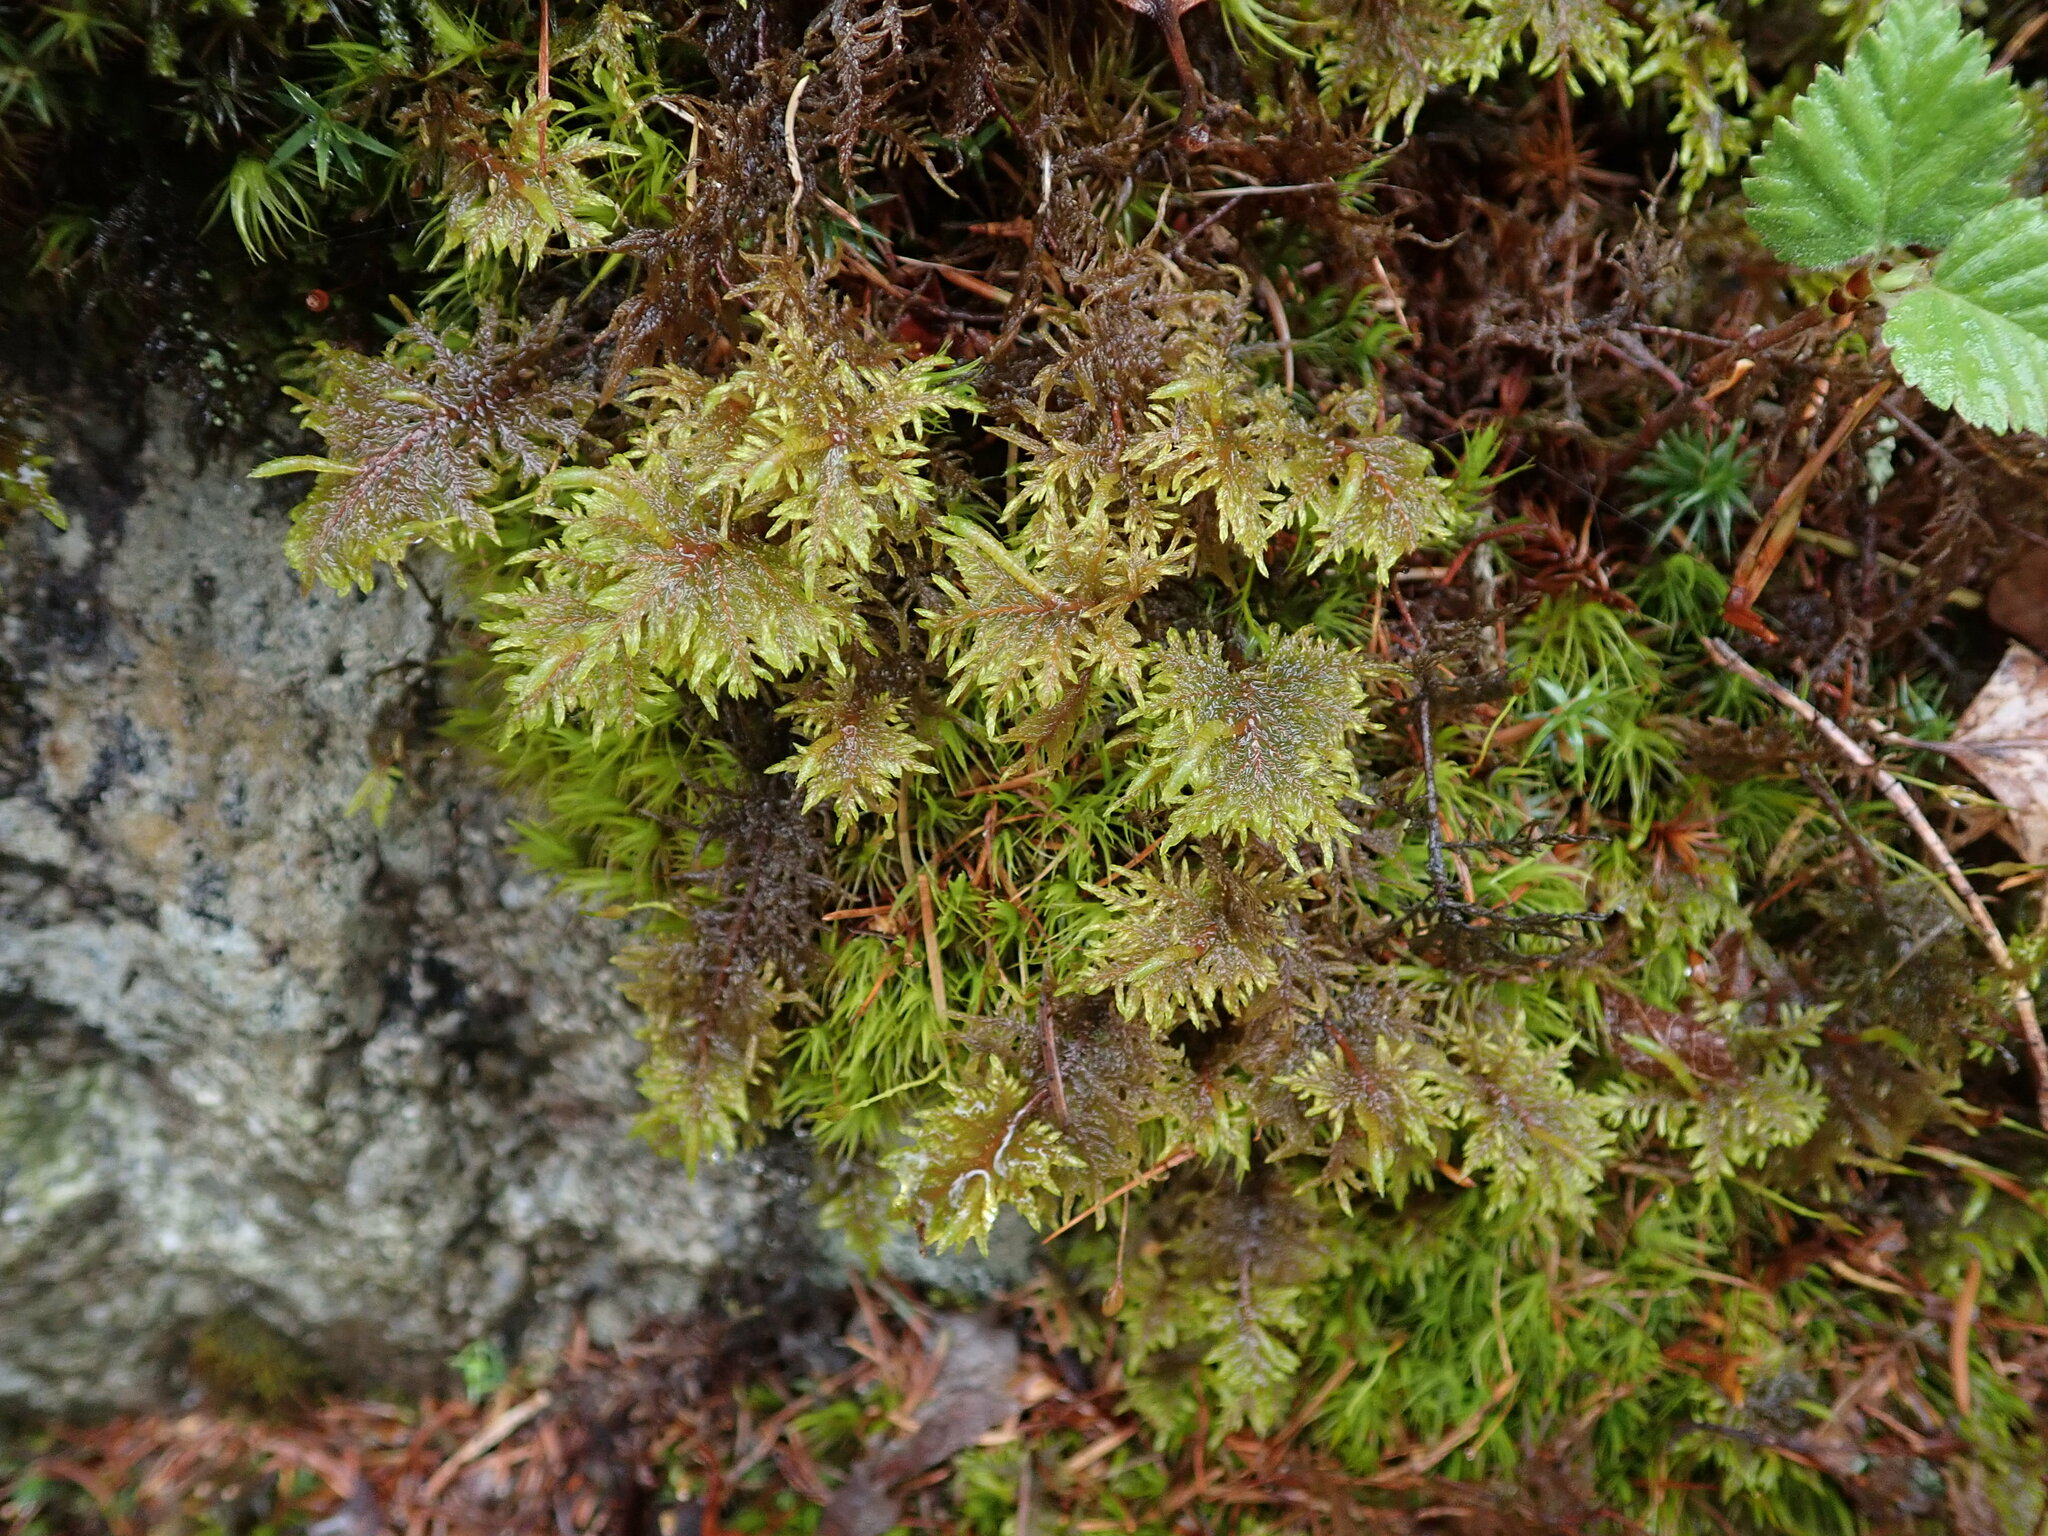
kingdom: Plantae
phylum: Bryophyta
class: Bryopsida
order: Hypnales
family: Hylocomiaceae
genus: Hylocomium
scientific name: Hylocomium splendens
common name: Stairstep moss
